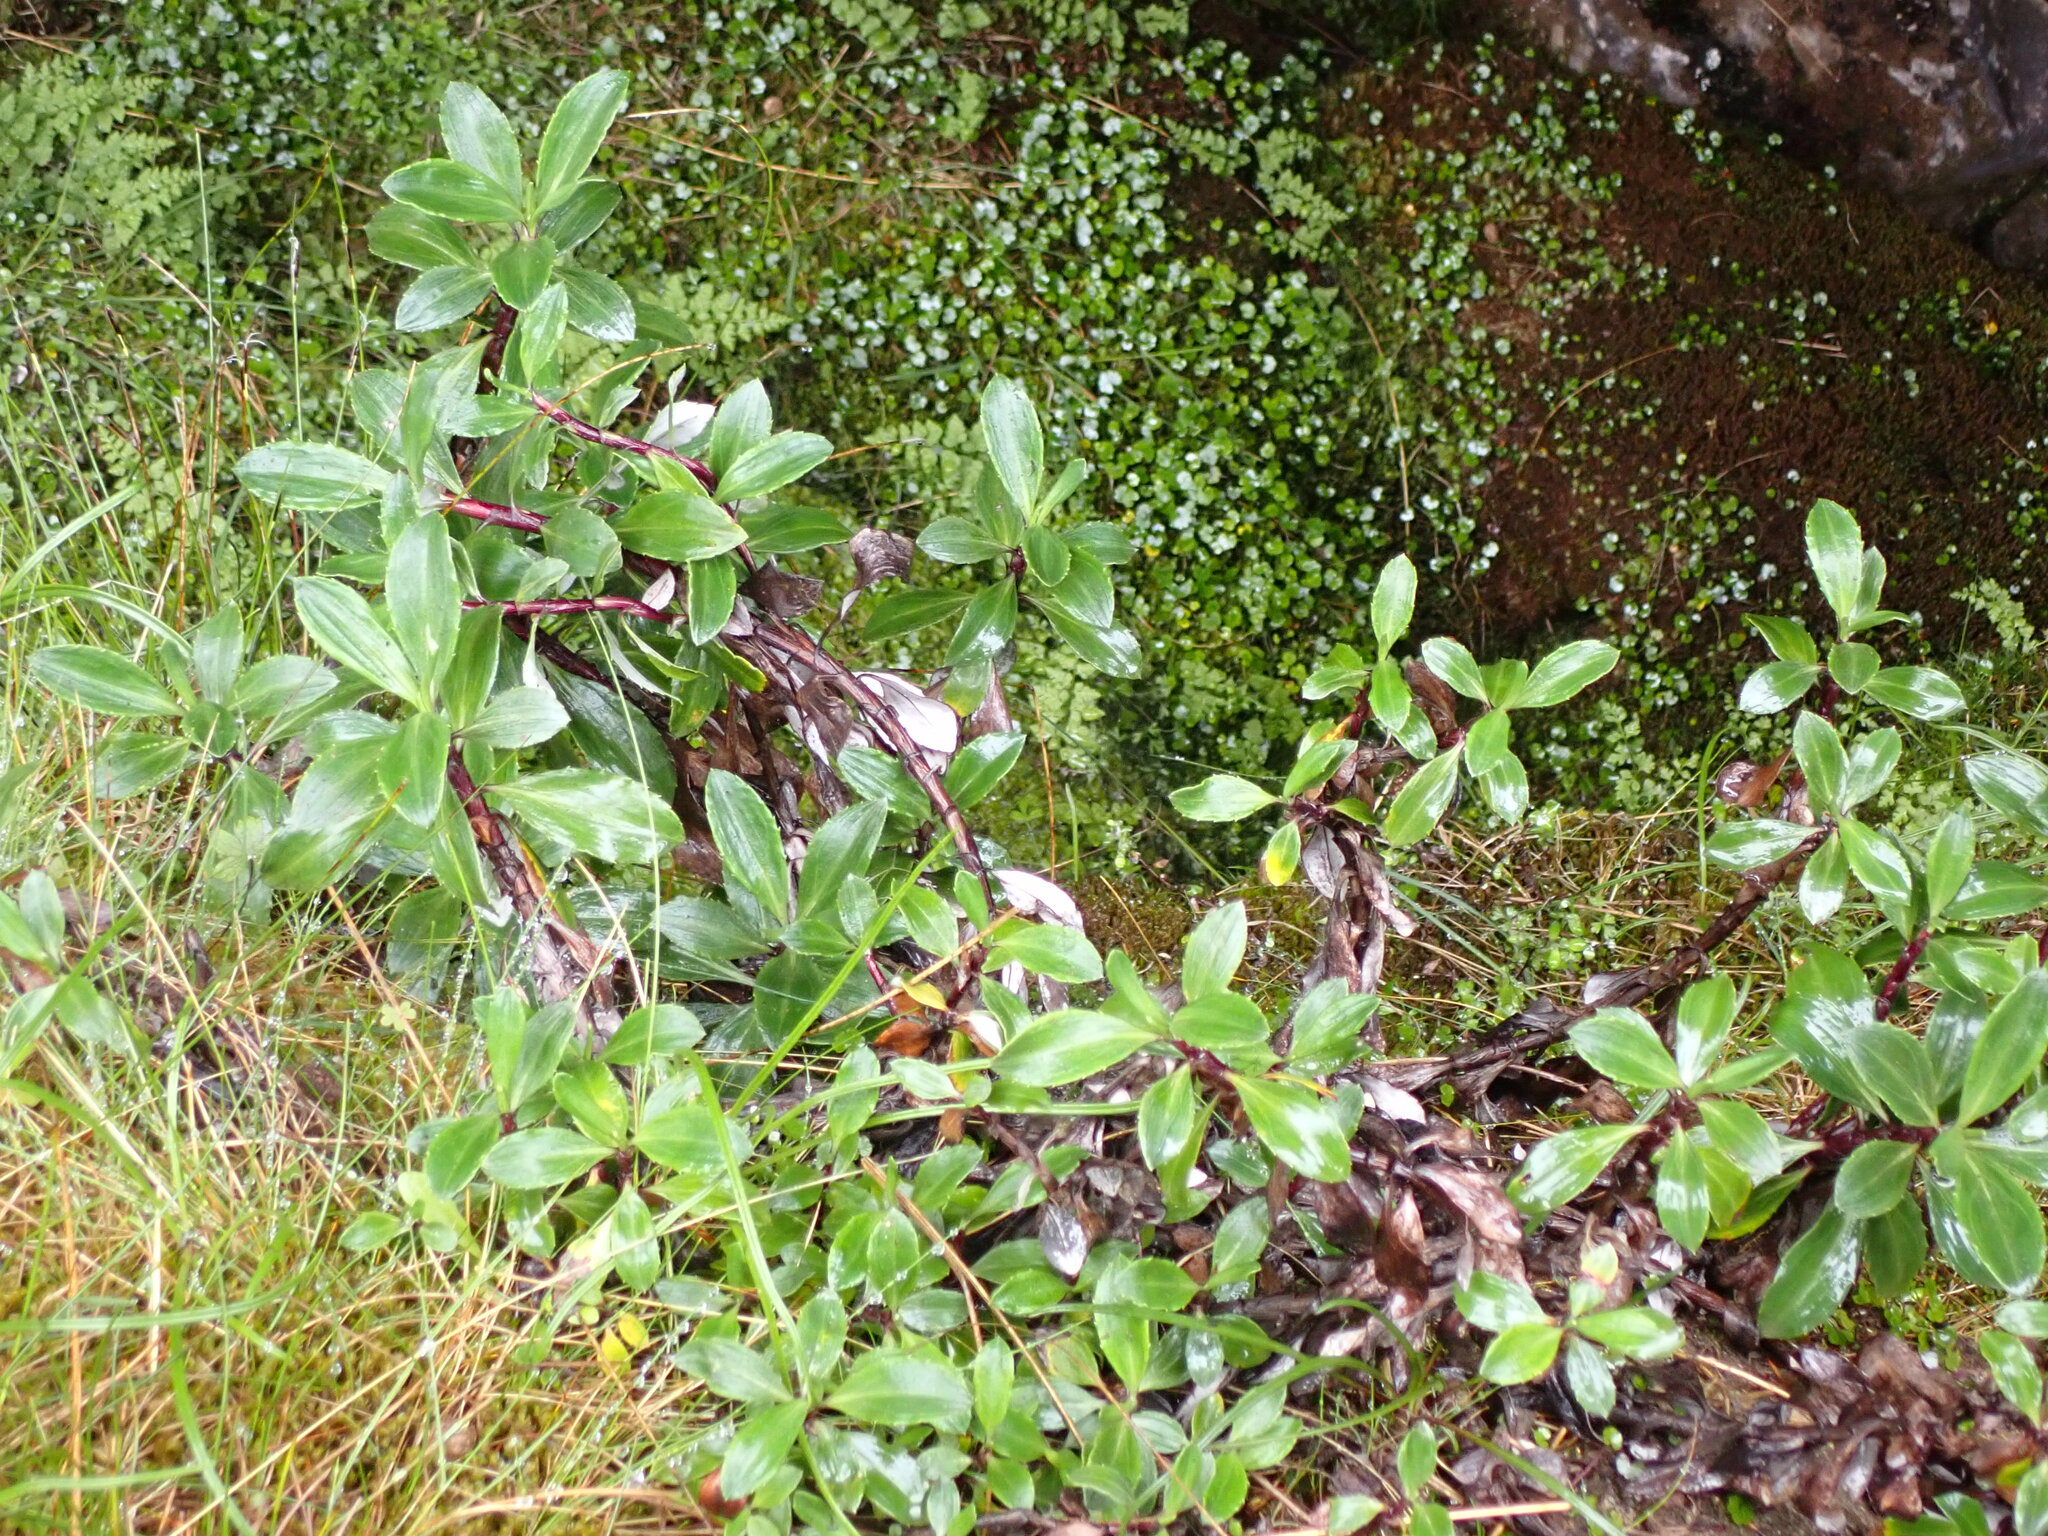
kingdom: Plantae
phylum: Tracheophyta
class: Magnoliopsida
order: Asterales
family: Asteraceae
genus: Celmisia
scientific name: Celmisia bonplandii
